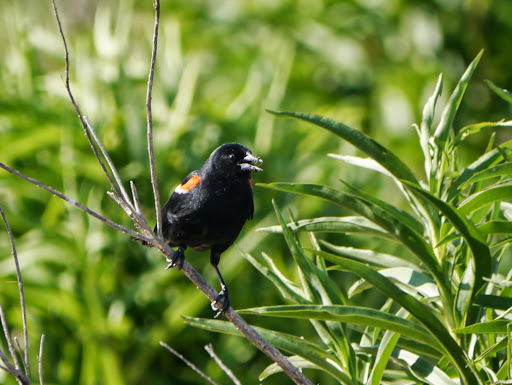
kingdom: Animalia
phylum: Chordata
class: Aves
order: Passeriformes
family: Icteridae
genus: Agelaius
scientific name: Agelaius phoeniceus
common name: Red-winged blackbird
